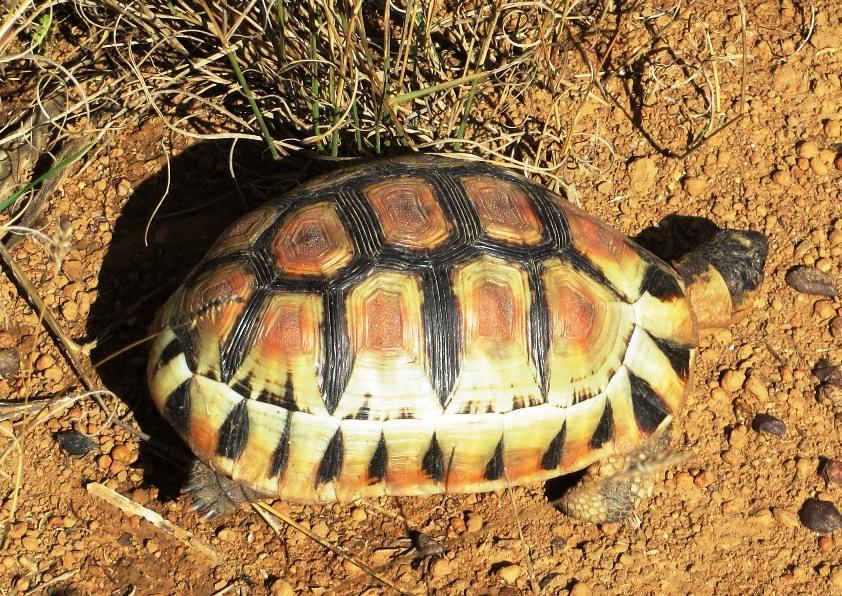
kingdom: Animalia
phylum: Chordata
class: Testudines
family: Testudinidae
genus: Chersina
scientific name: Chersina angulata
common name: South african bowsprit tortoise
